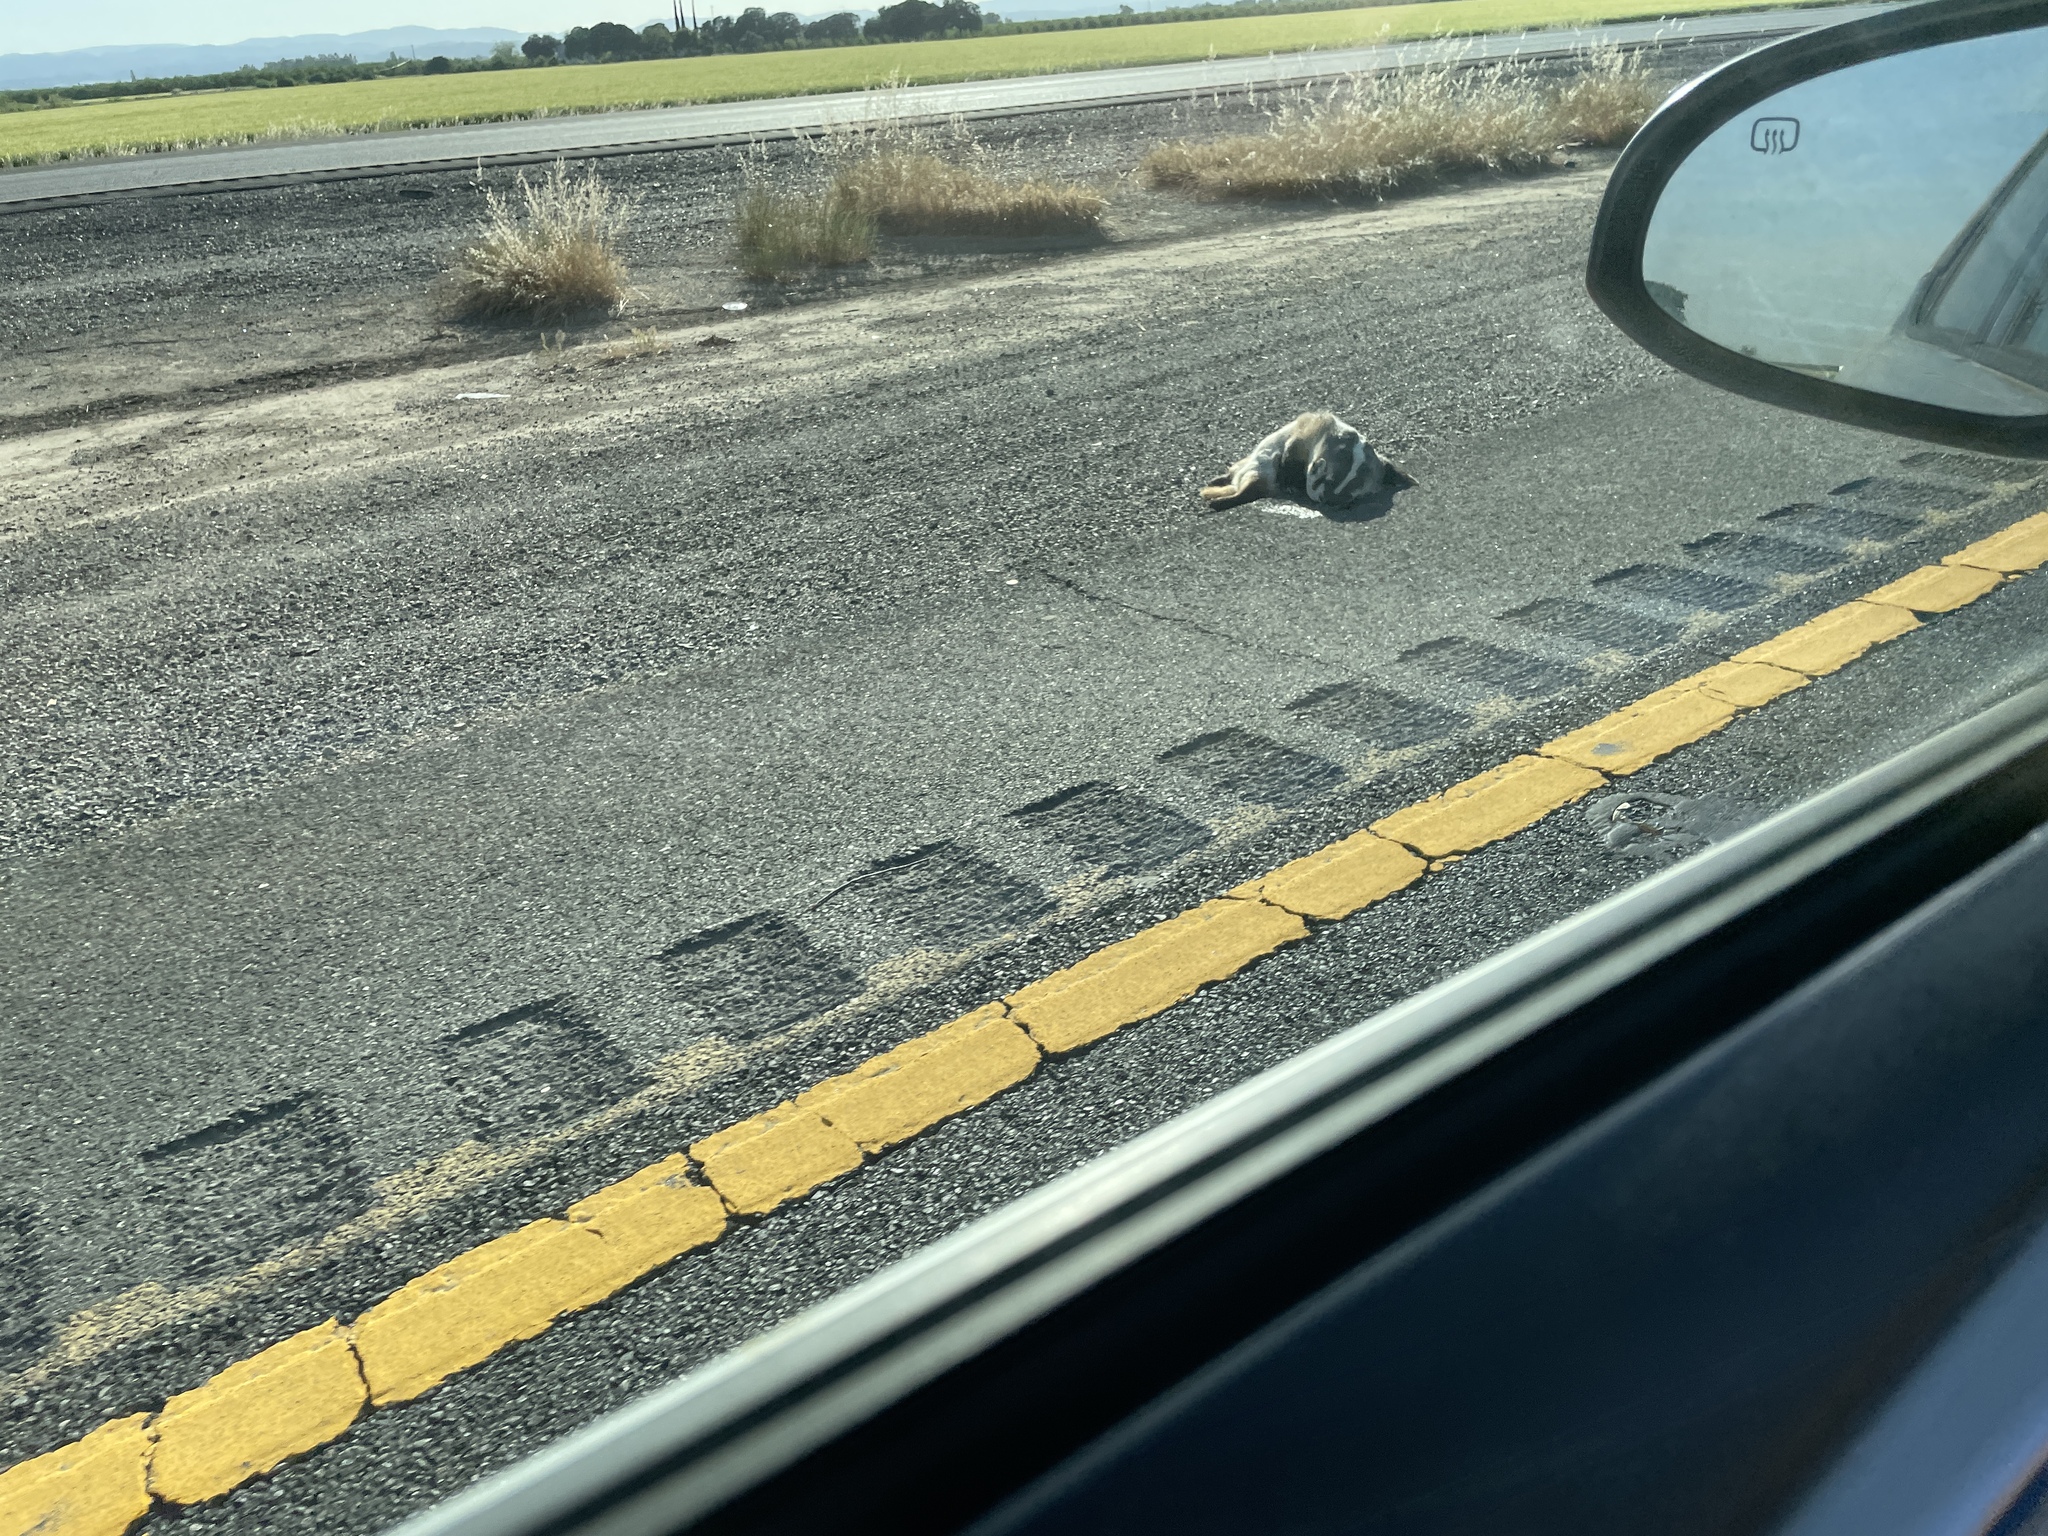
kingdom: Animalia
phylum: Chordata
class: Mammalia
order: Carnivora
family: Mustelidae
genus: Taxidea
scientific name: Taxidea taxus
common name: American badger
